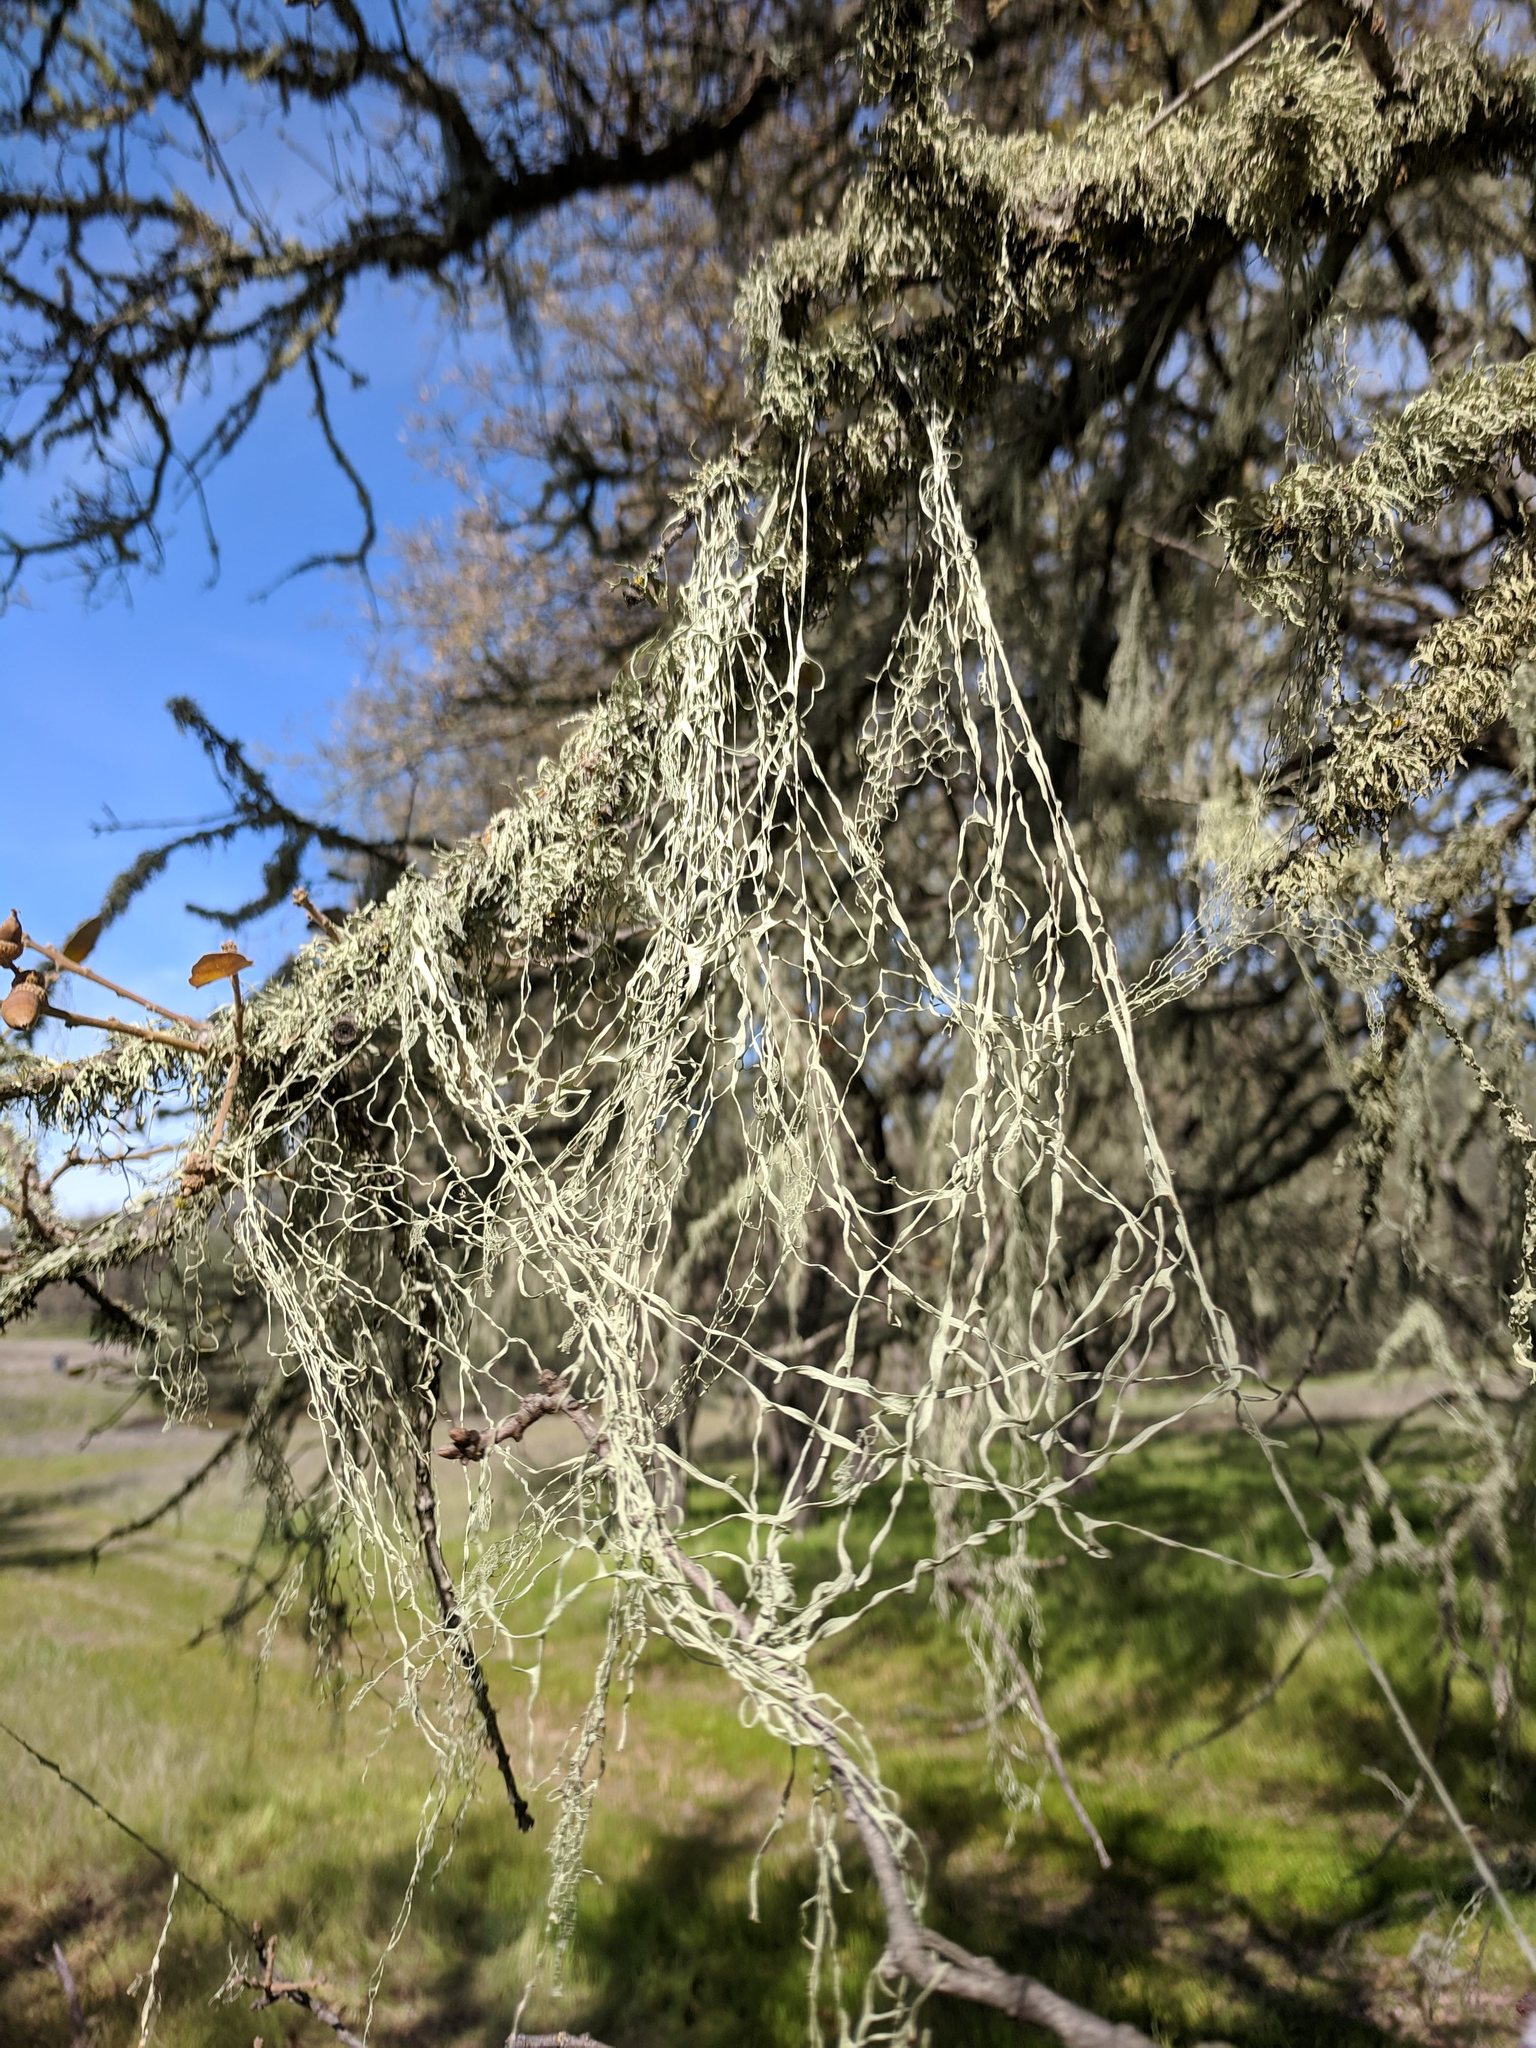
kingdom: Fungi
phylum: Ascomycota
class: Lecanoromycetes
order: Lecanorales
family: Ramalinaceae
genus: Ramalina
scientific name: Ramalina menziesii
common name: Lace lichen
